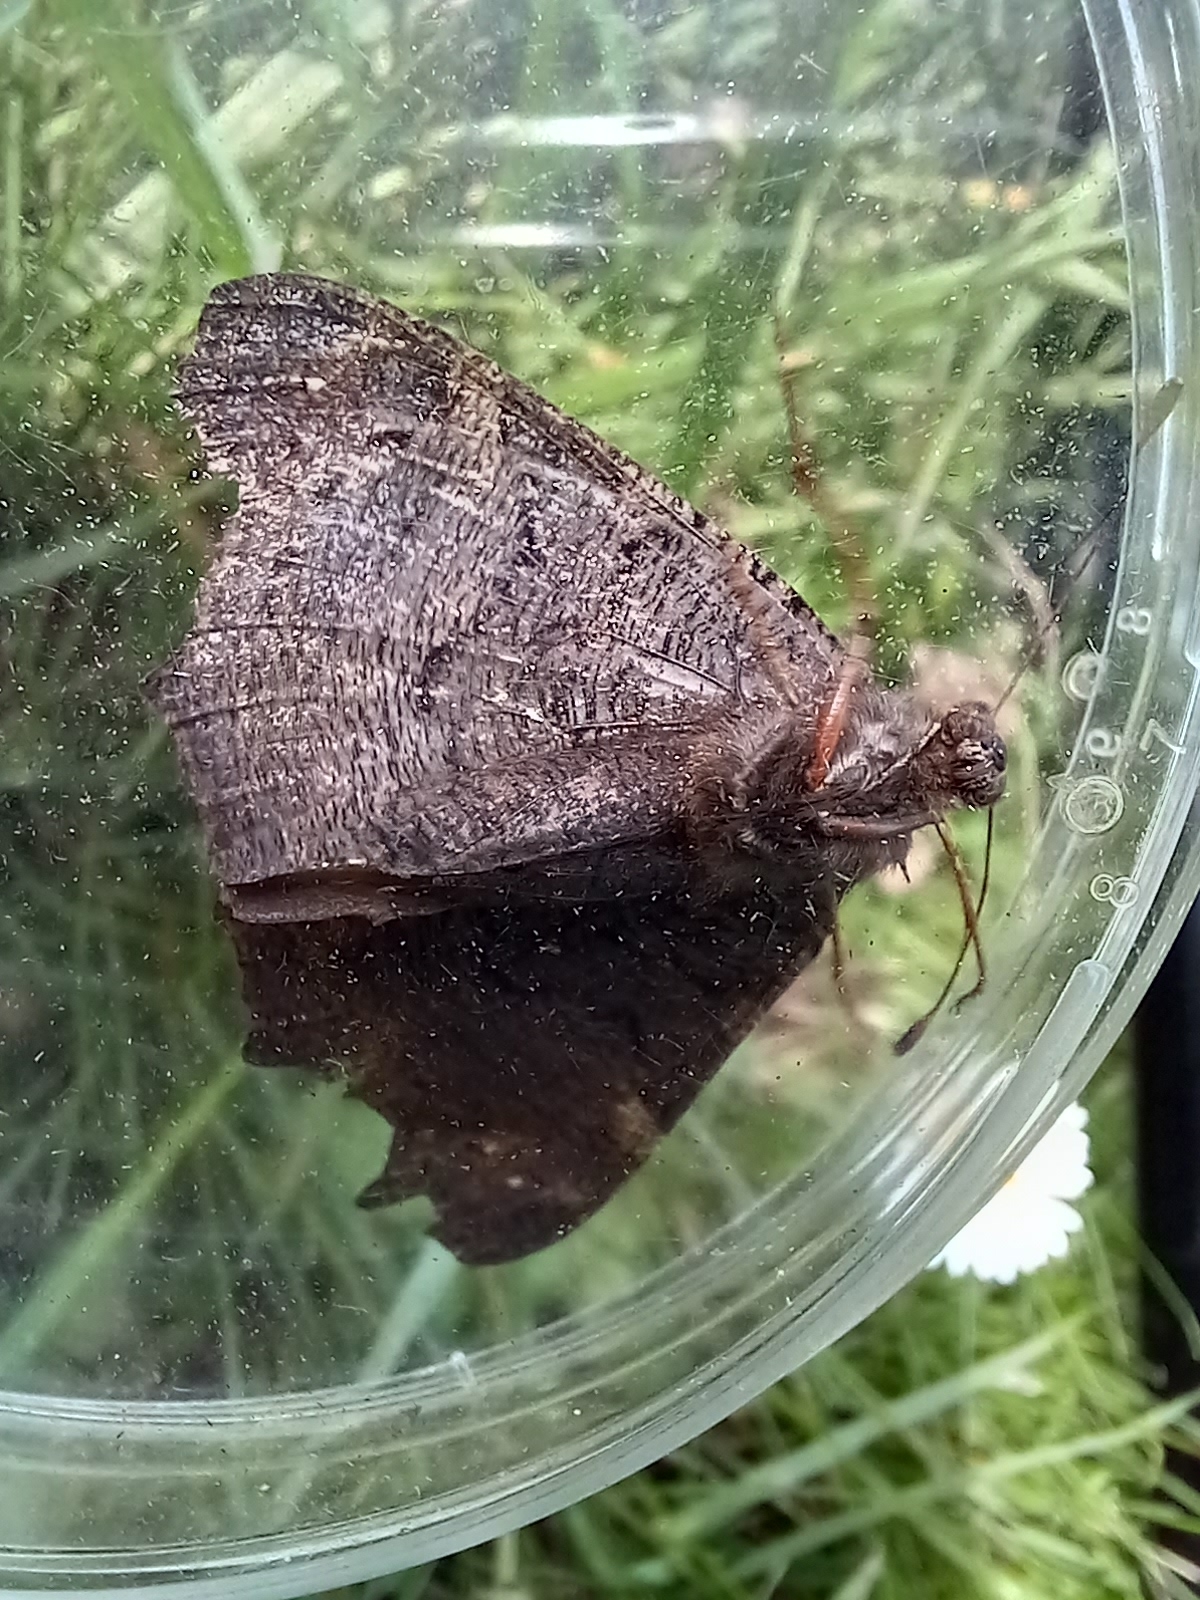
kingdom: Animalia
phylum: Arthropoda
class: Insecta
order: Lepidoptera
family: Nymphalidae
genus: Aglais
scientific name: Aglais io
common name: Peacock
